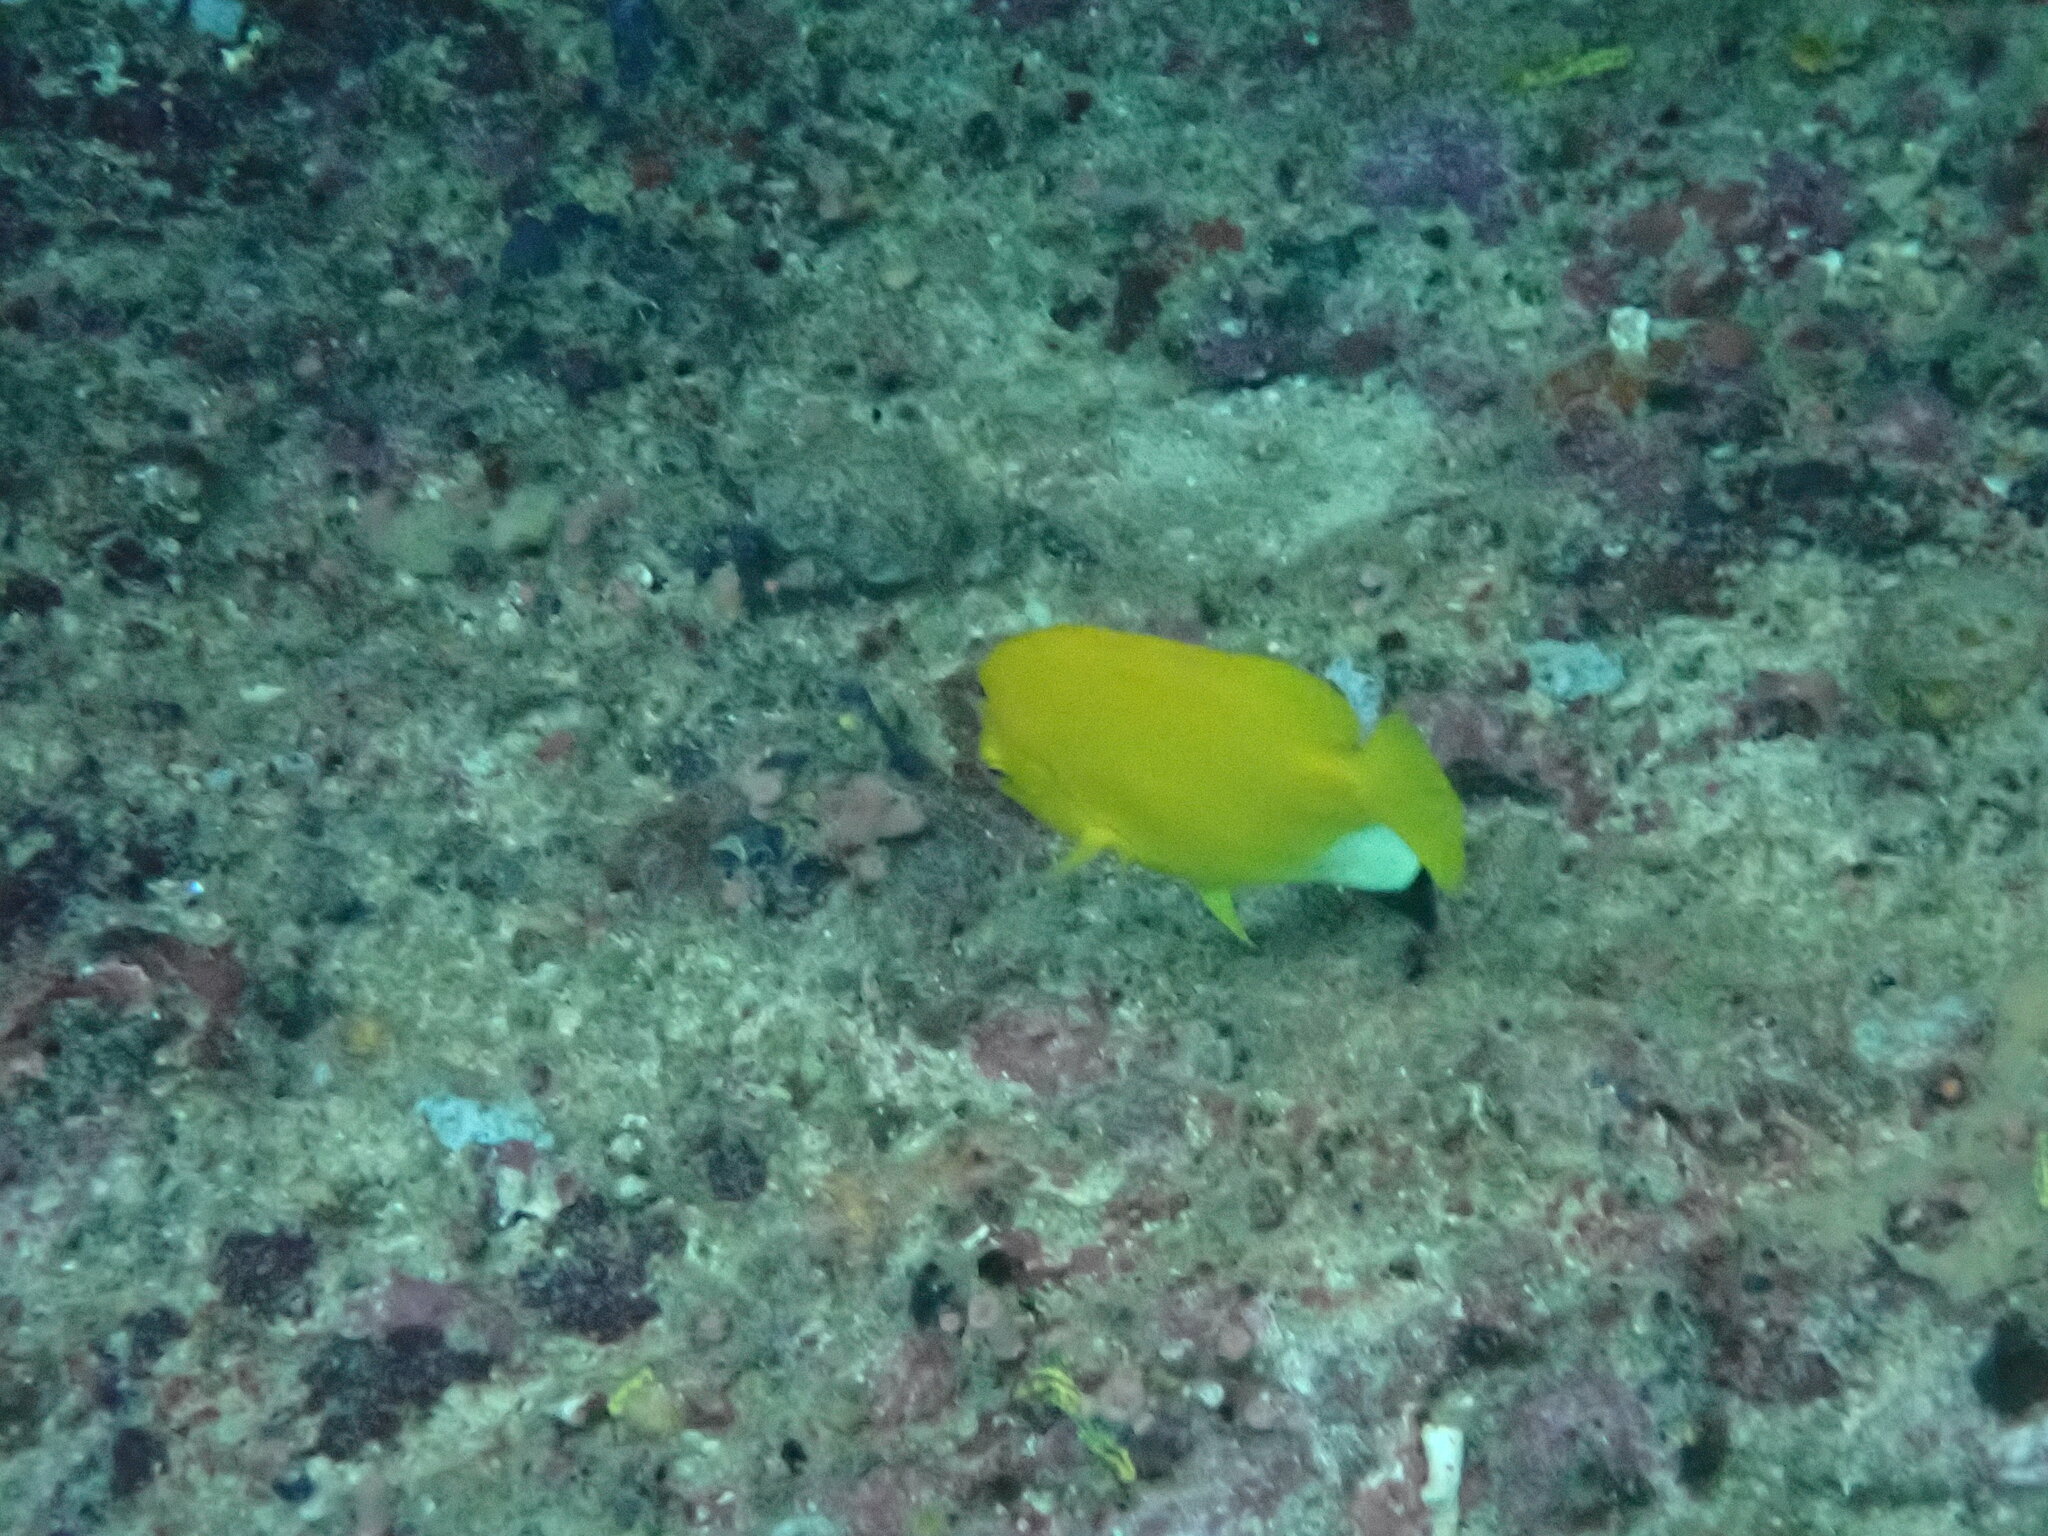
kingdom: Animalia
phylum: Chordata
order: Perciformes
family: Pomacanthidae
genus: Apolemichthys
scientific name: Apolemichthys trimaculatus
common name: Threespot angelfish
